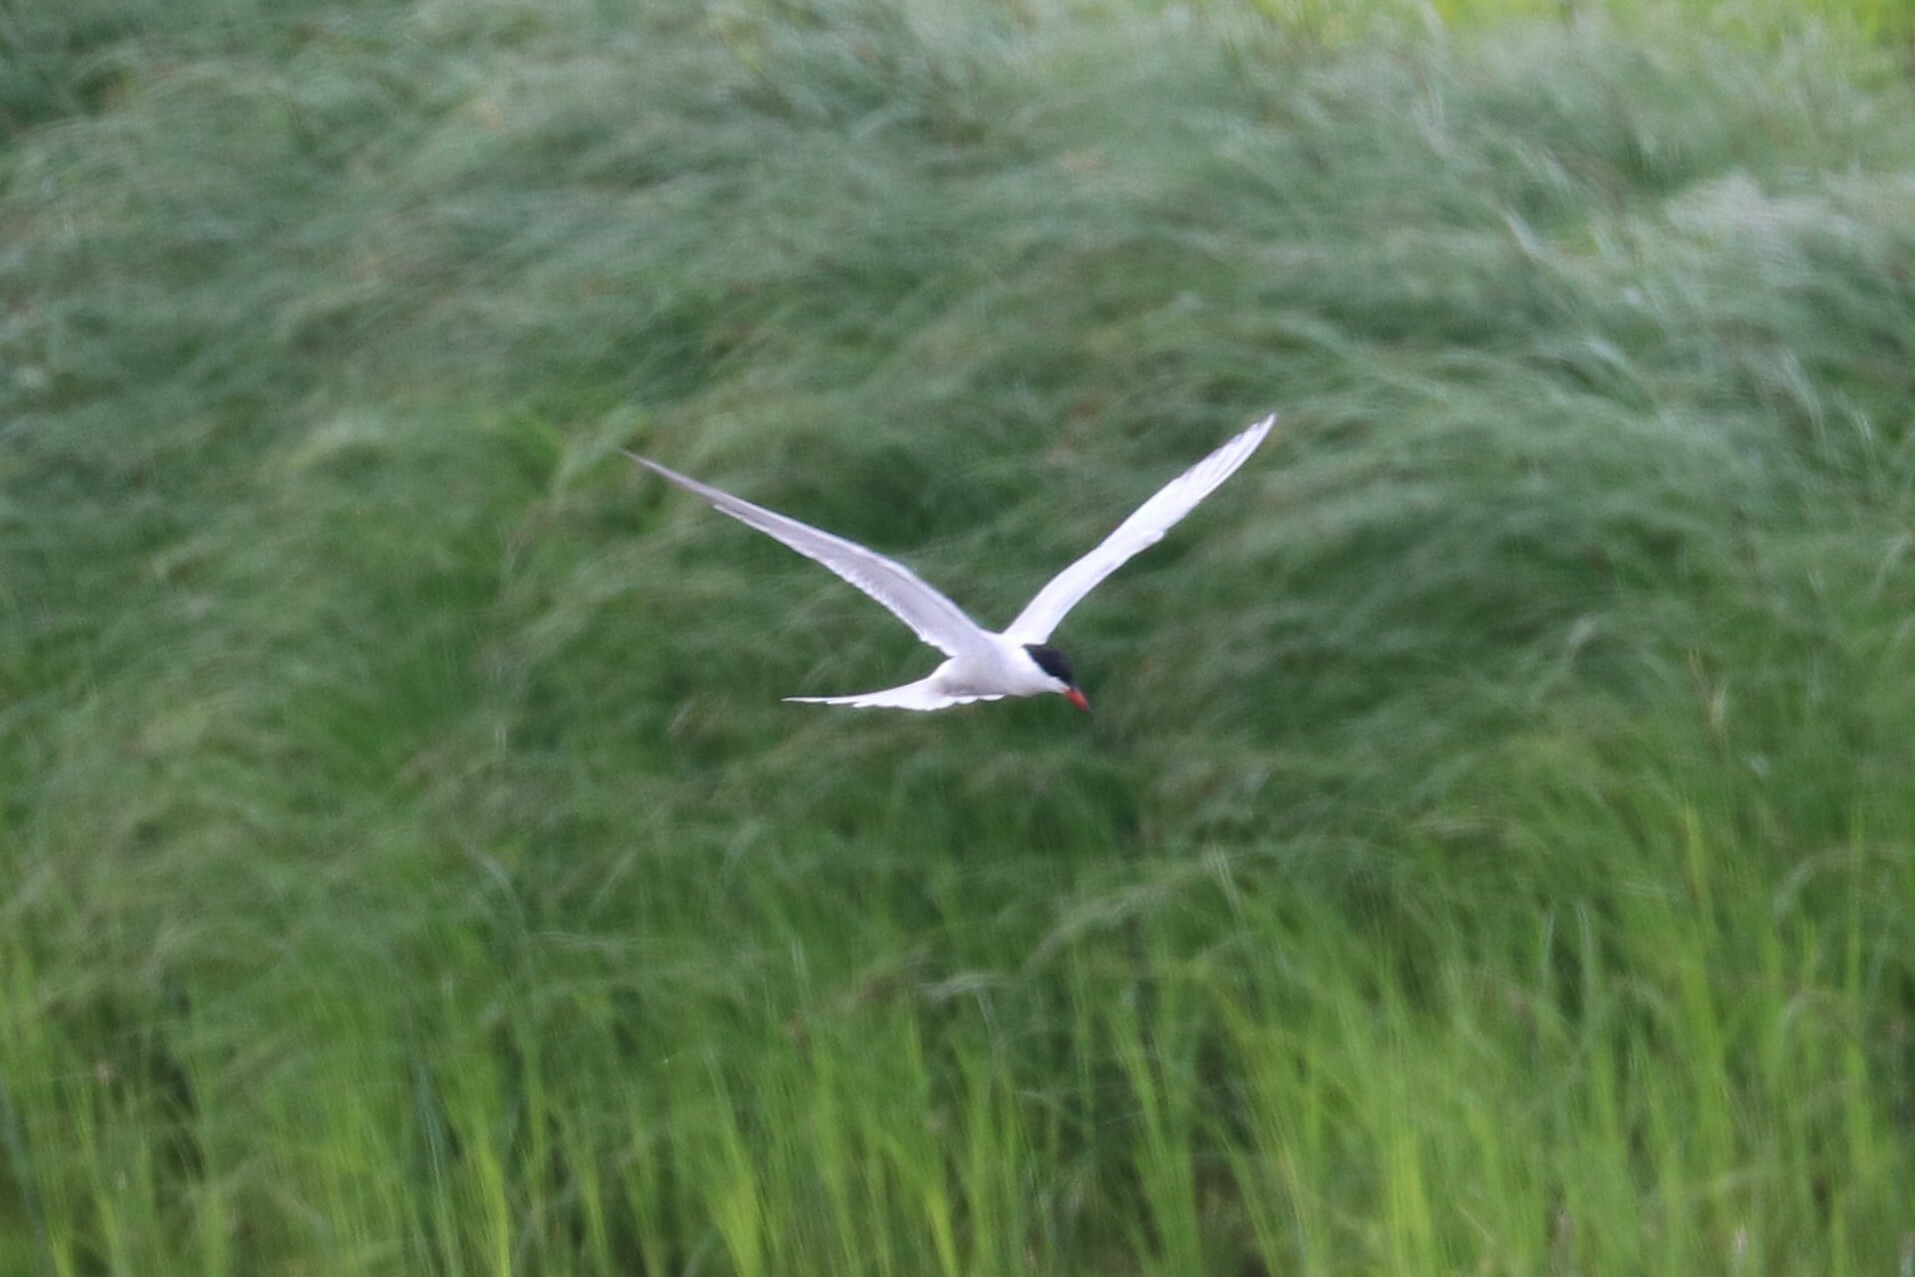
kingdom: Animalia
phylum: Chordata
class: Aves
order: Charadriiformes
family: Laridae
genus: Sterna
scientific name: Sterna hirundo
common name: Common tern
